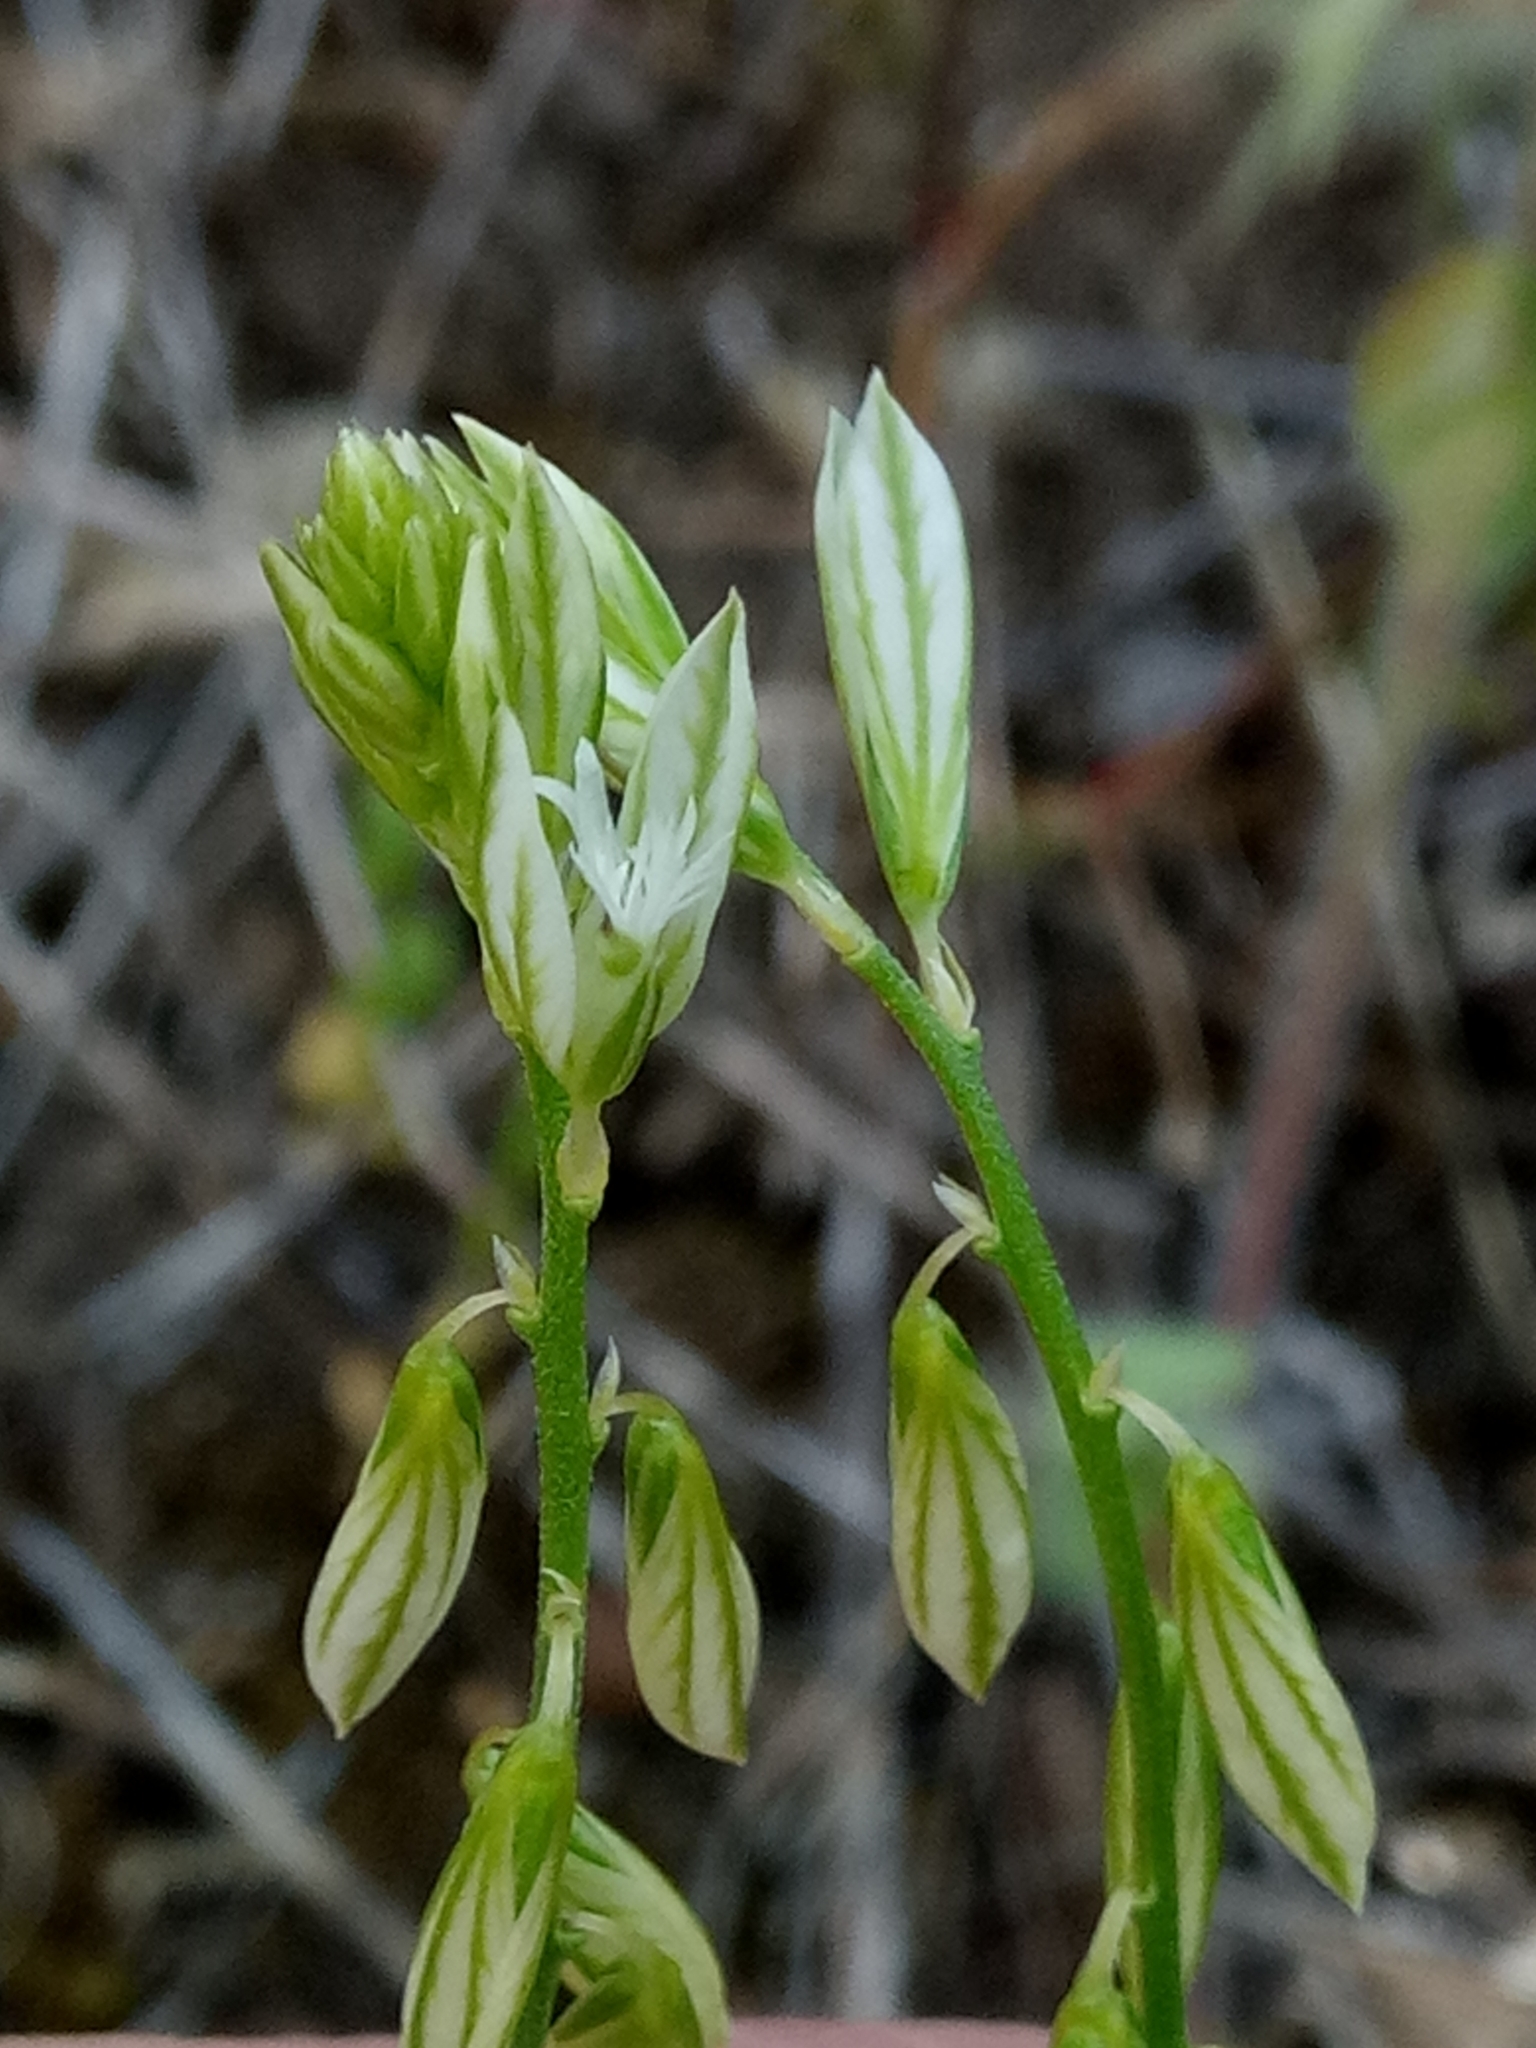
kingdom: Plantae
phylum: Tracheophyta
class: Magnoliopsida
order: Fabales
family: Polygalaceae
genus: Polygala
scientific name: Polygala monspeliaca
